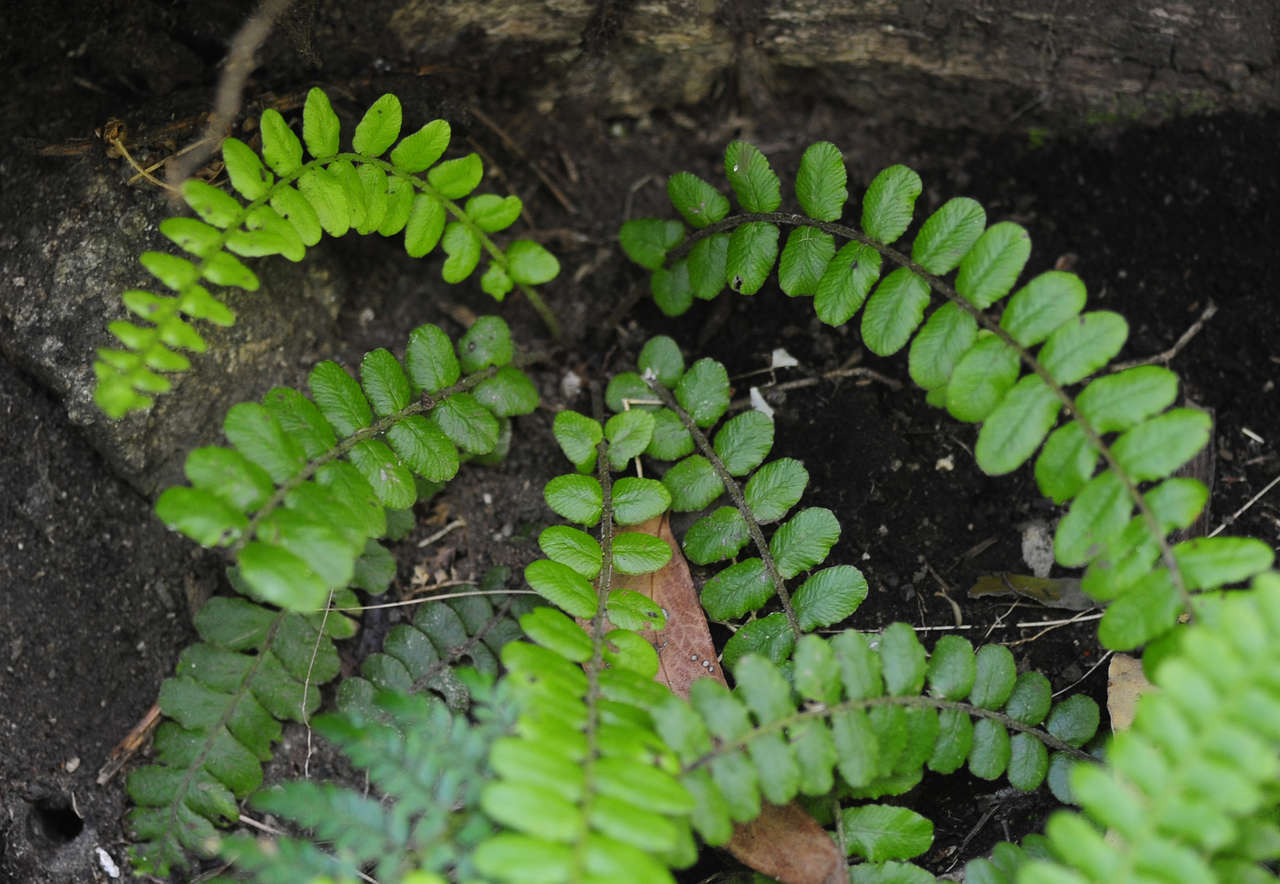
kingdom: Plantae
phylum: Tracheophyta
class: Polypodiopsida
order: Polypodiales
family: Blechnaceae
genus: Cranfillia
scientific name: Cranfillia fluviatilis
